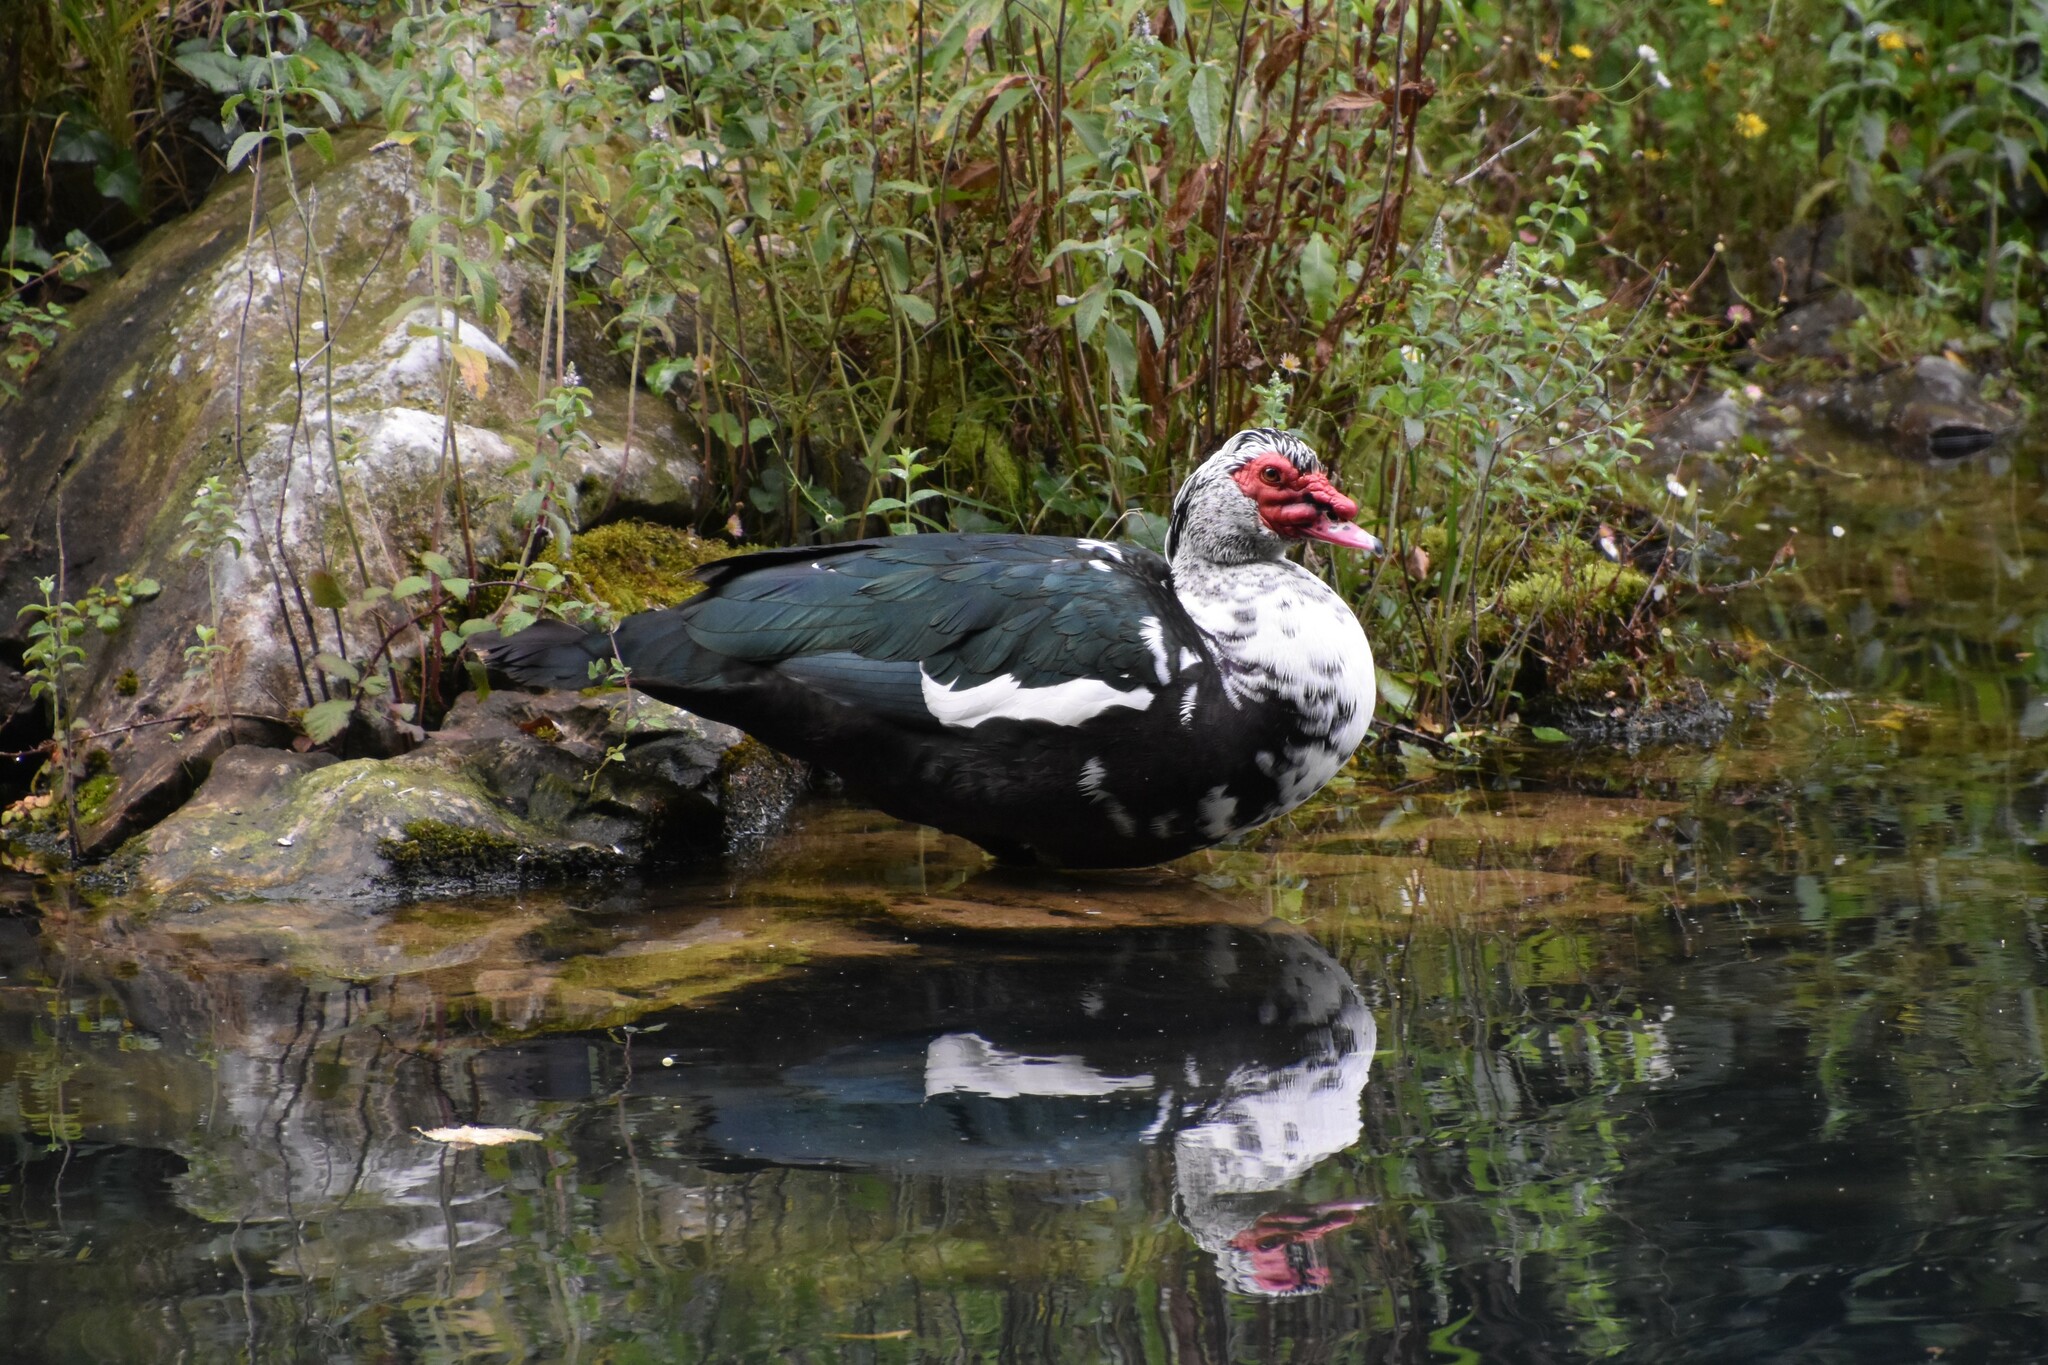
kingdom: Animalia
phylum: Chordata
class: Aves
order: Anseriformes
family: Anatidae
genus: Cairina
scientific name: Cairina moschata
